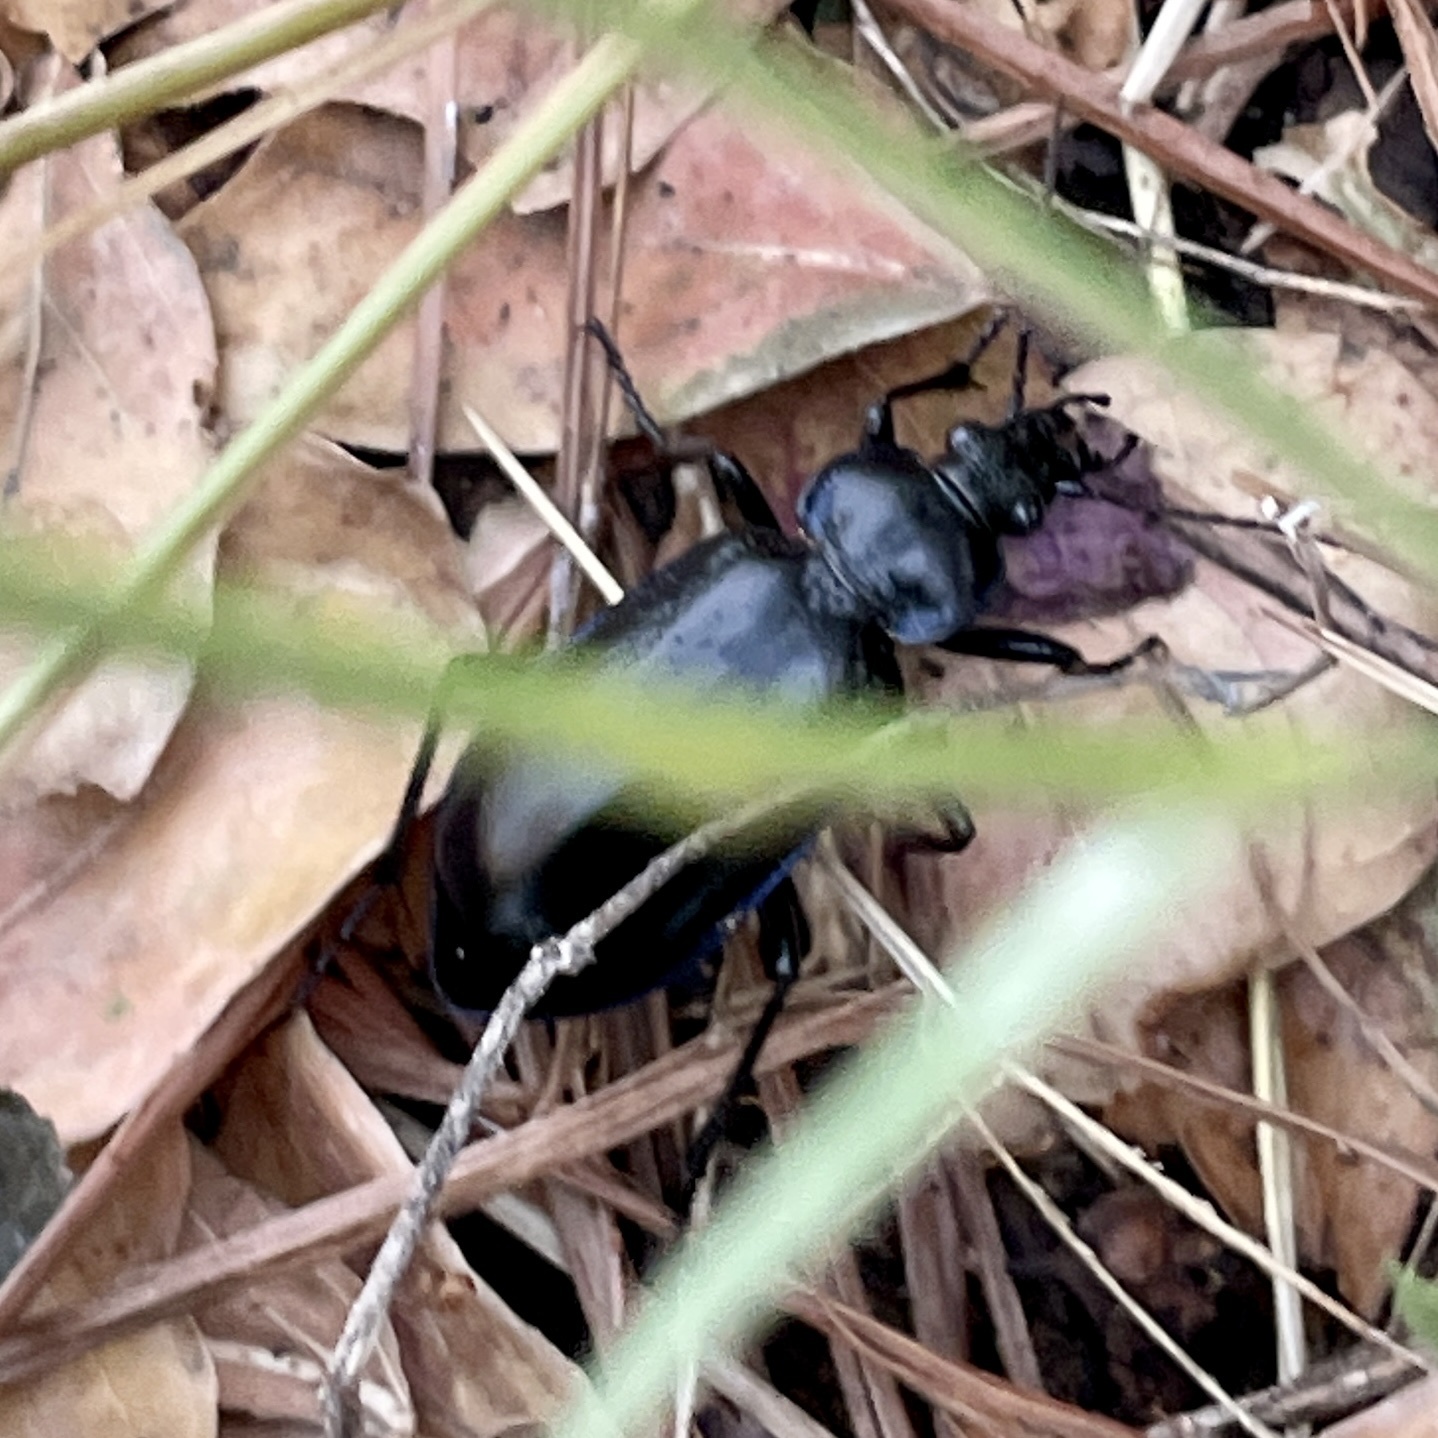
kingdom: Animalia
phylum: Arthropoda
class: Insecta
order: Coleoptera
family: Carabidae
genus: Calosoma
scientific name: Calosoma macrum
